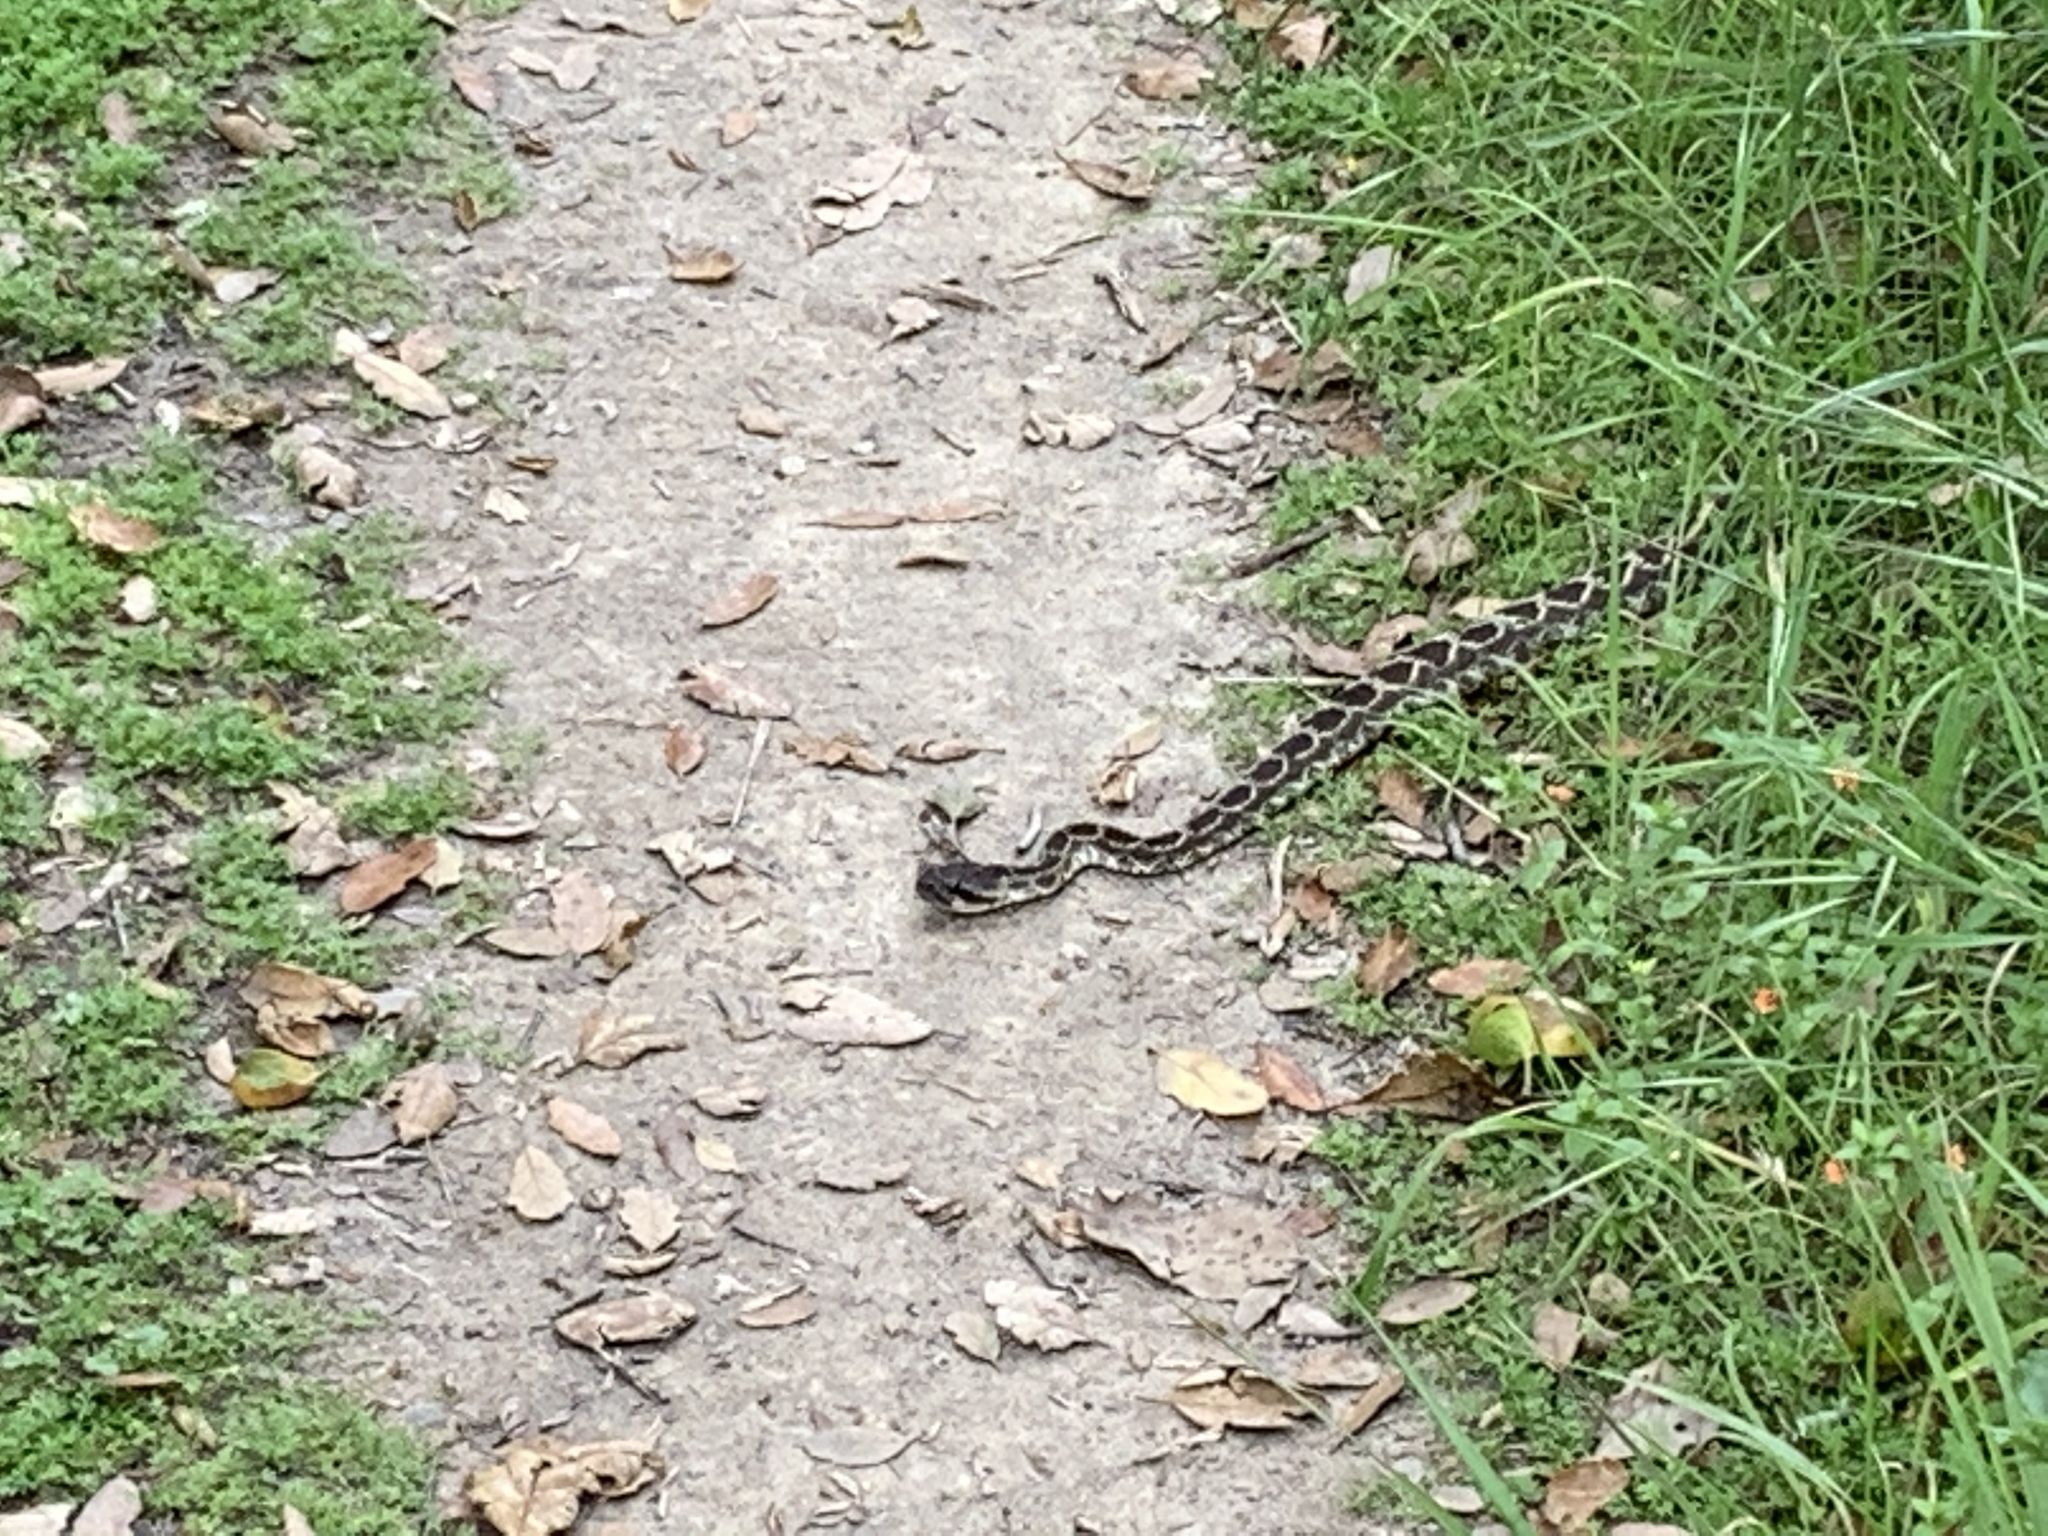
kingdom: Animalia
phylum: Chordata
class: Squamata
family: Viperidae
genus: Crotalus
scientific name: Crotalus oreganus
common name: Abyssus
